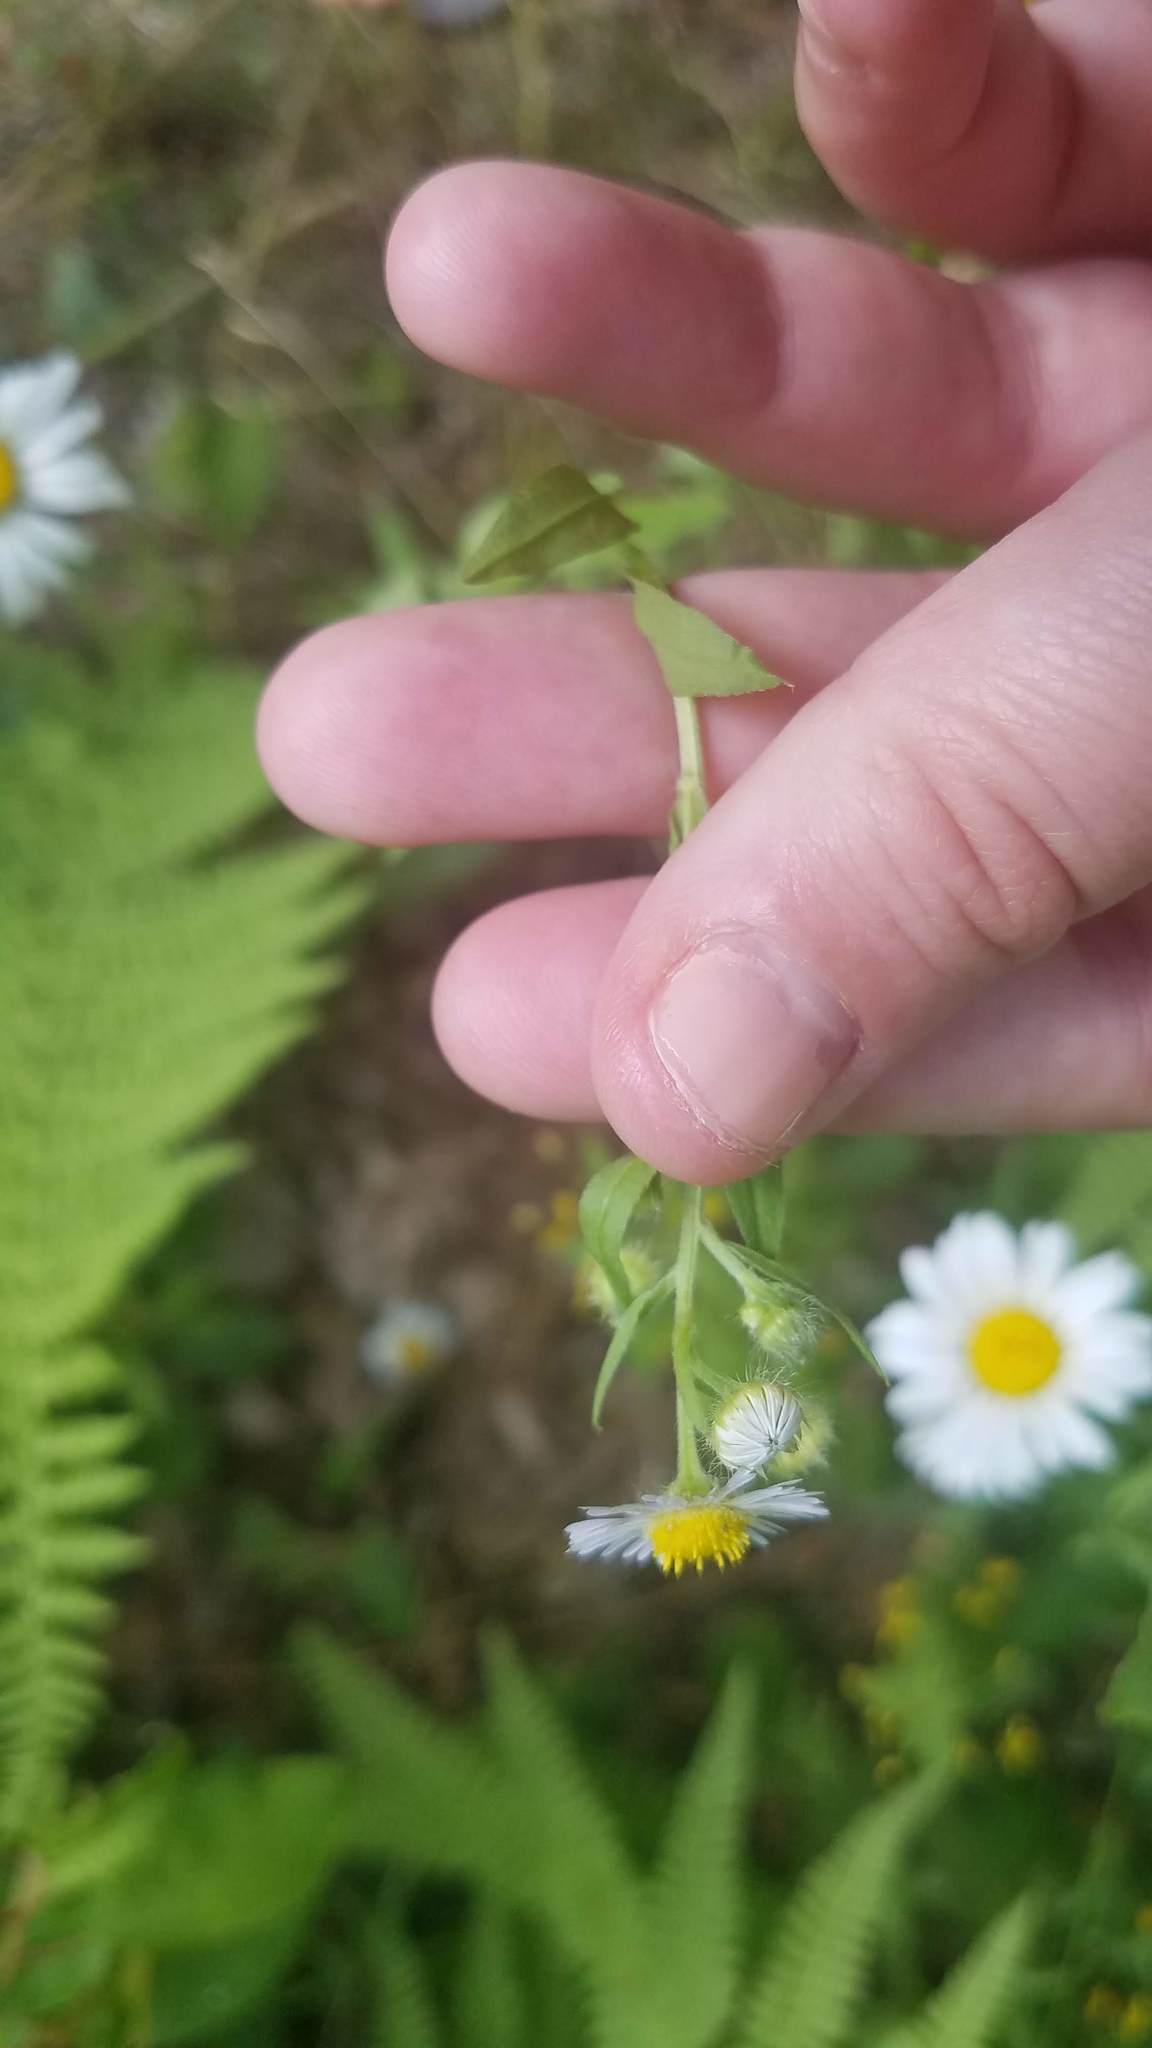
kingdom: Plantae
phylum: Tracheophyta
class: Magnoliopsida
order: Asterales
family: Asteraceae
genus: Erigeron
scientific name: Erigeron strigosus
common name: Common eastern fleabane
